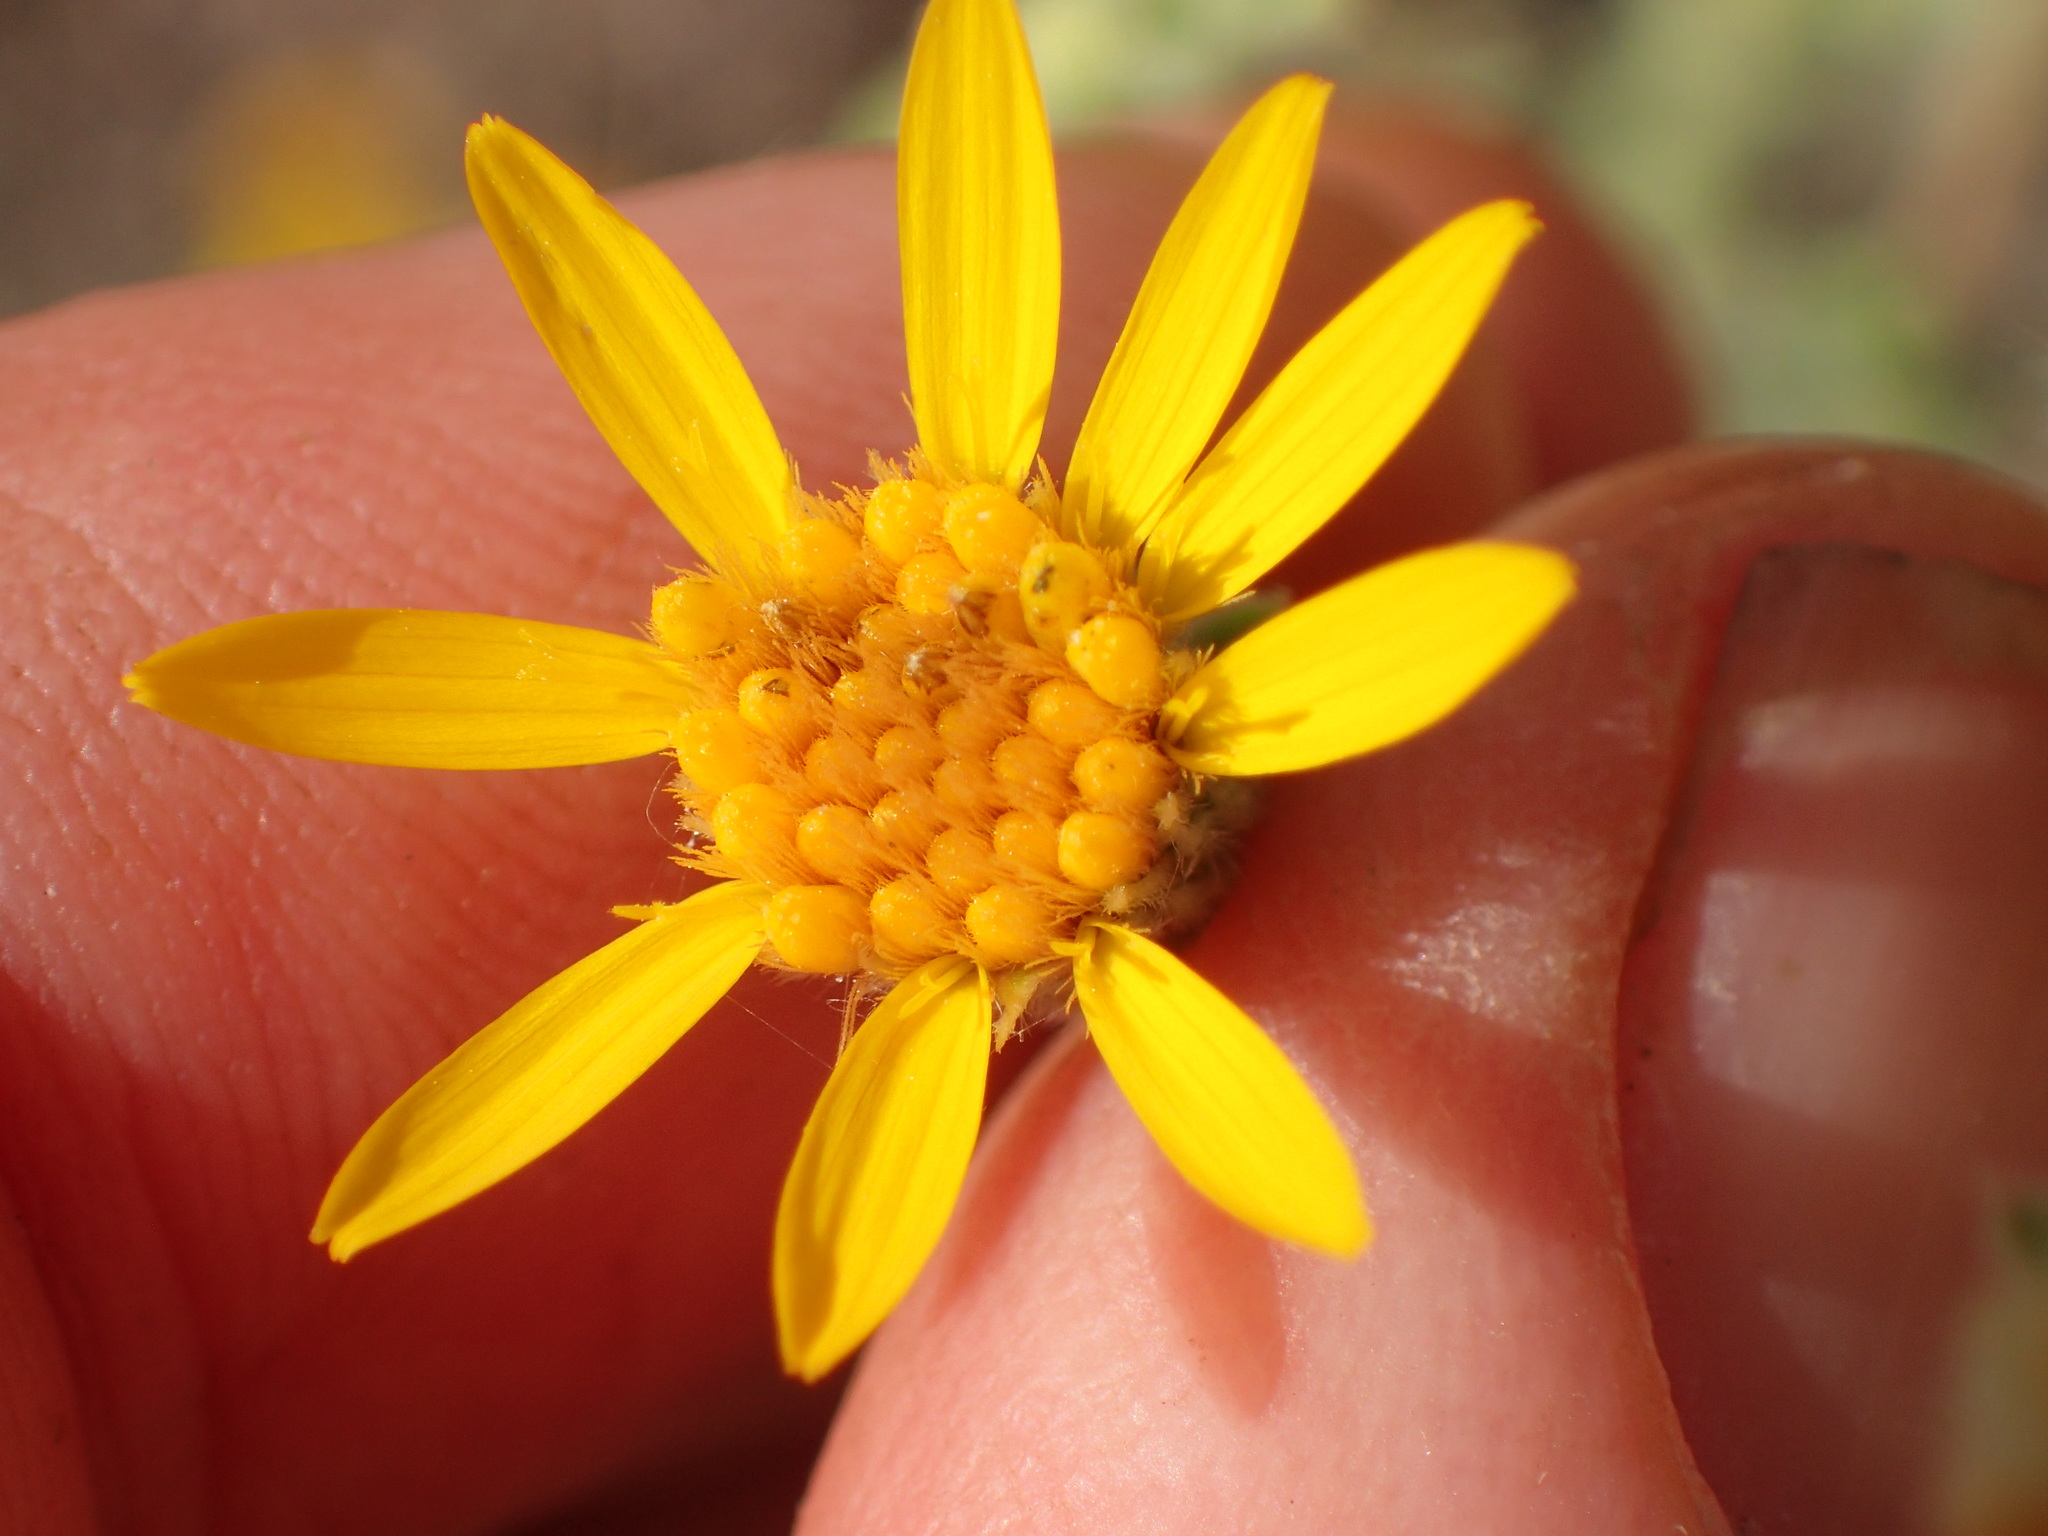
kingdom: Plantae
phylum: Tracheophyta
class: Magnoliopsida
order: Asterales
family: Asteraceae
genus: Heterotheca
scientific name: Heterotheca sessiliflora
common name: Sessile-flower golden-aster
